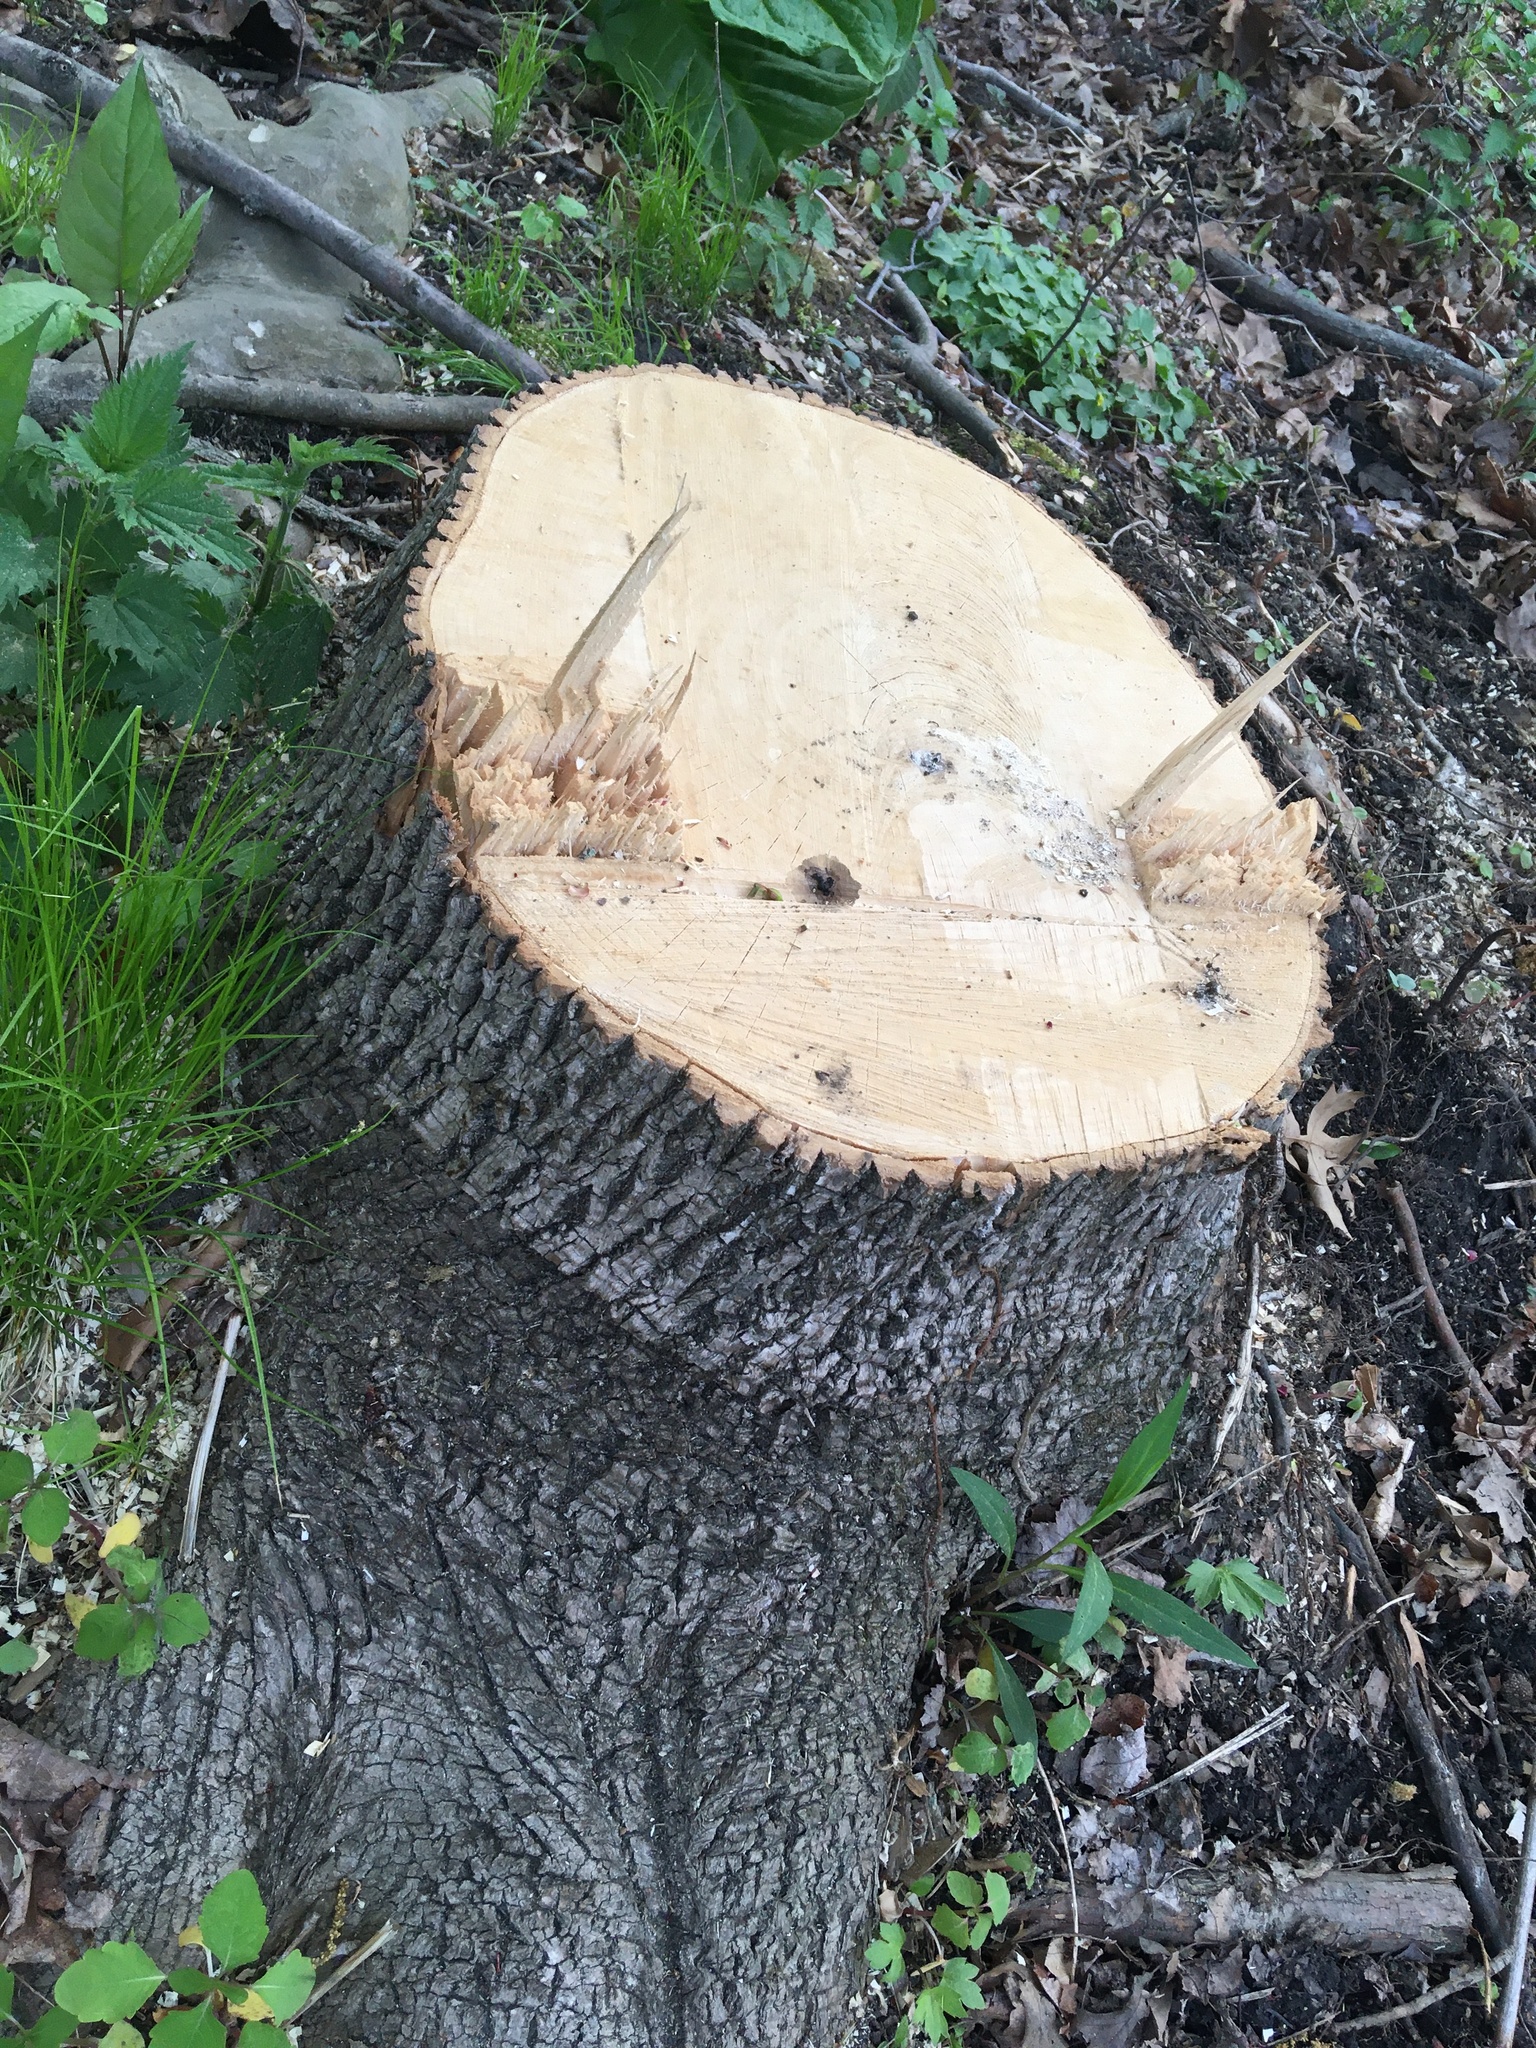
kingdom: Plantae
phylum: Tracheophyta
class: Magnoliopsida
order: Lamiales
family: Oleaceae
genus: Fraxinus
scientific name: Fraxinus pennsylvanica
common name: Green ash
